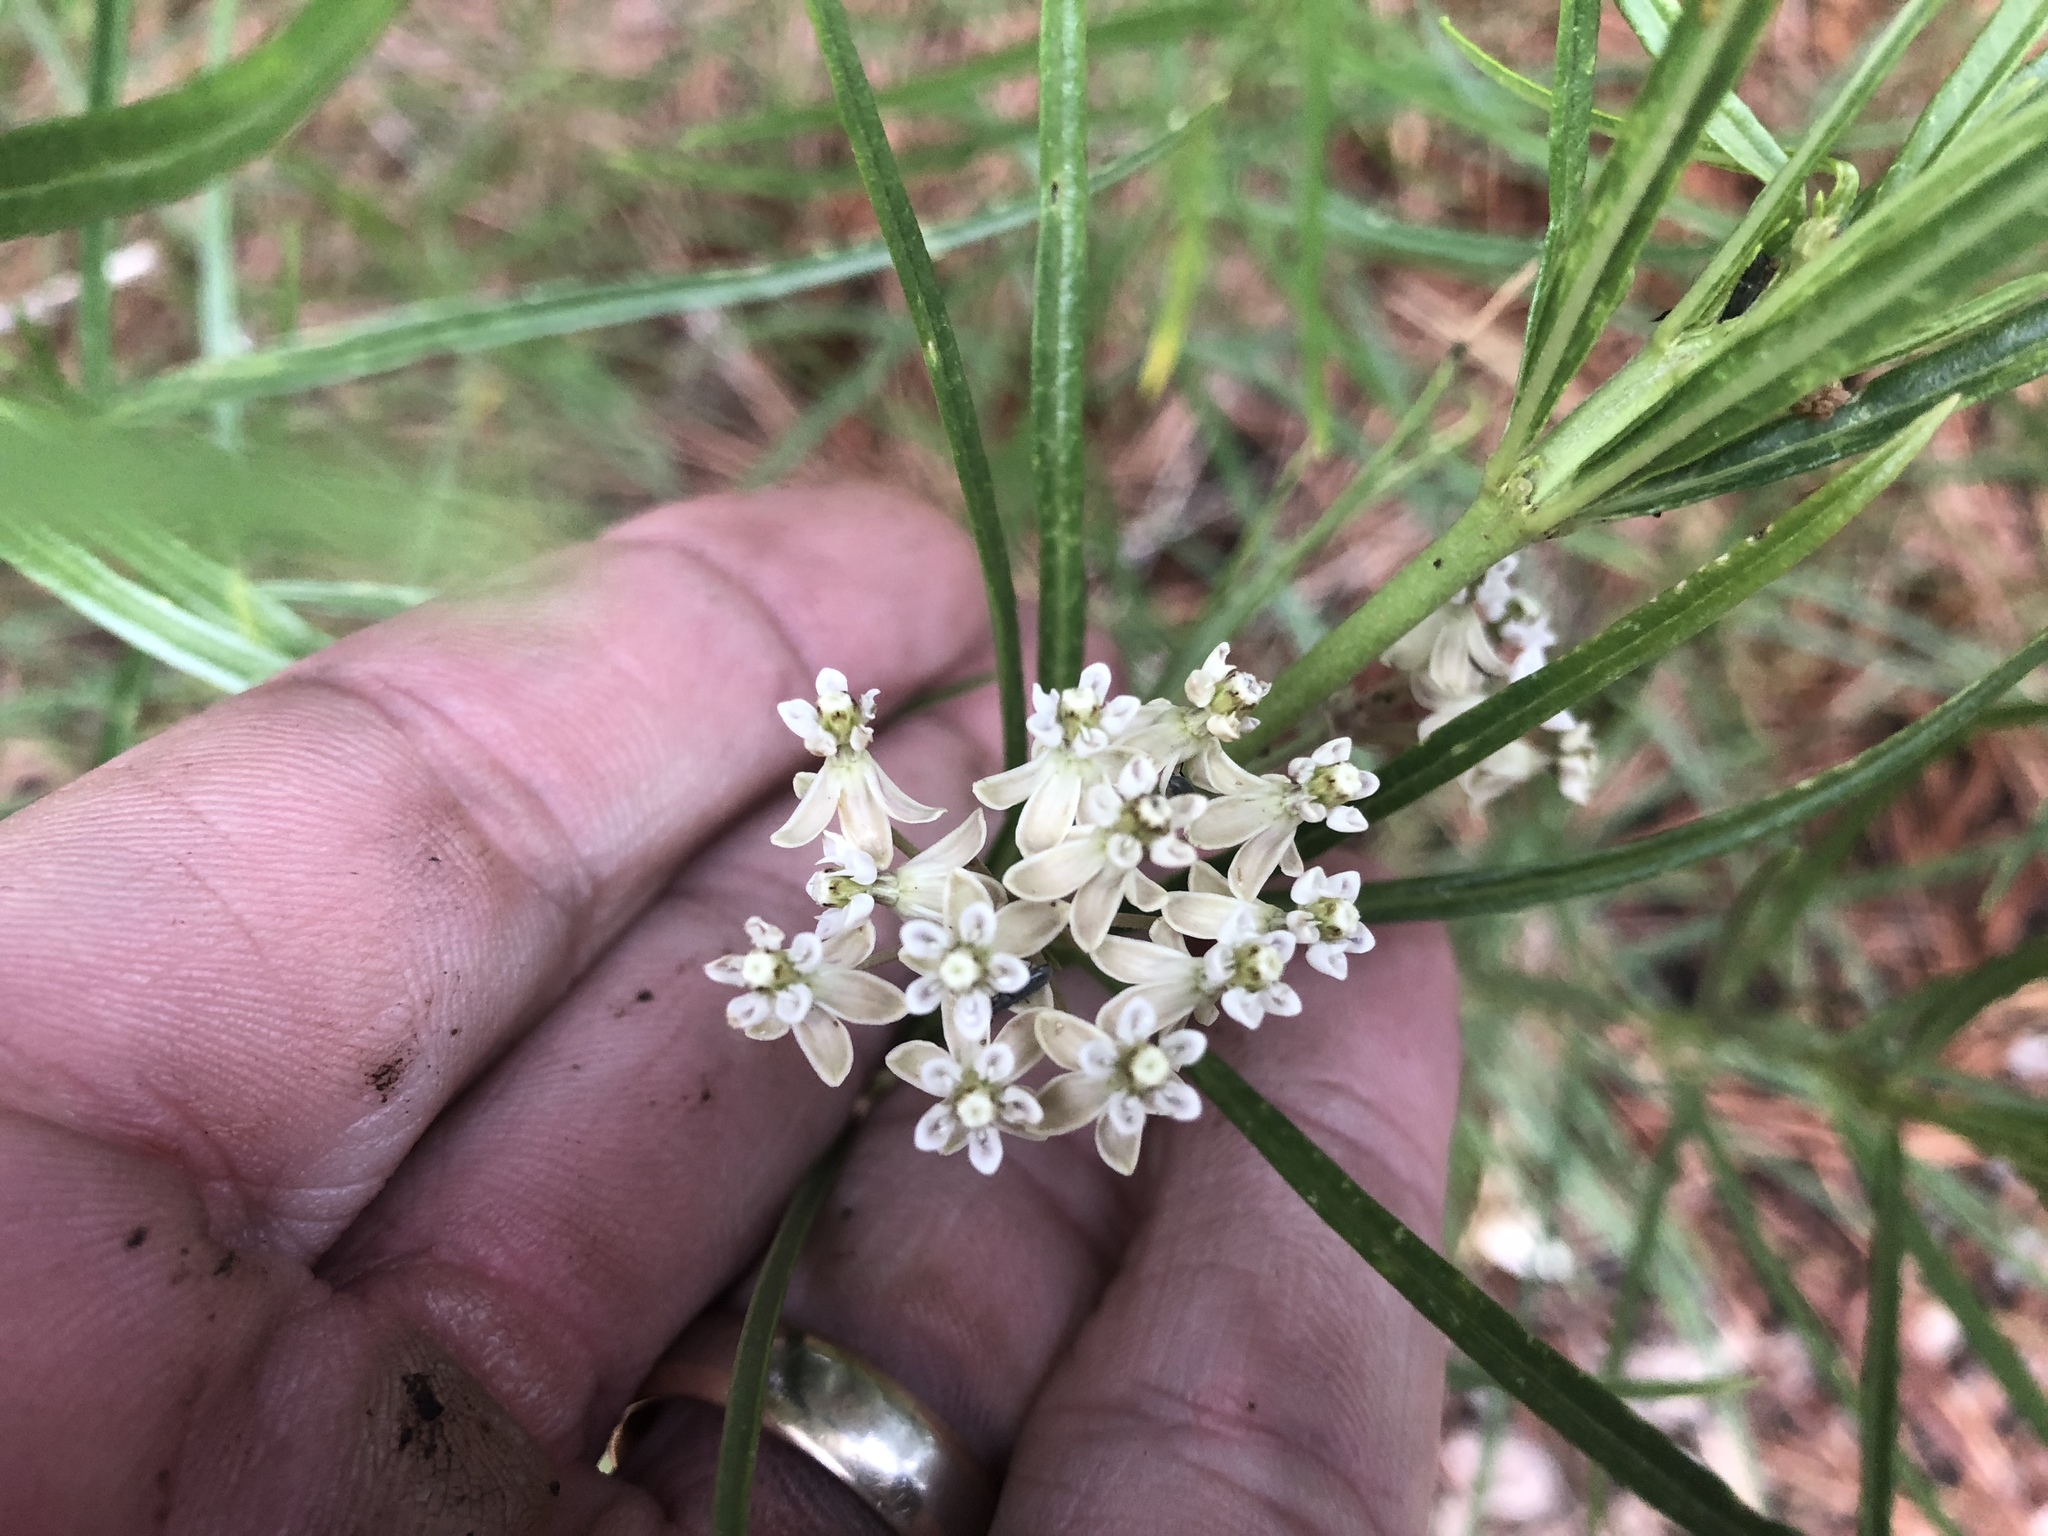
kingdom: Plantae
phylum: Tracheophyta
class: Magnoliopsida
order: Gentianales
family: Apocynaceae
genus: Asclepias
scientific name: Asclepias subverticillata
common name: Horsetail milkweed
